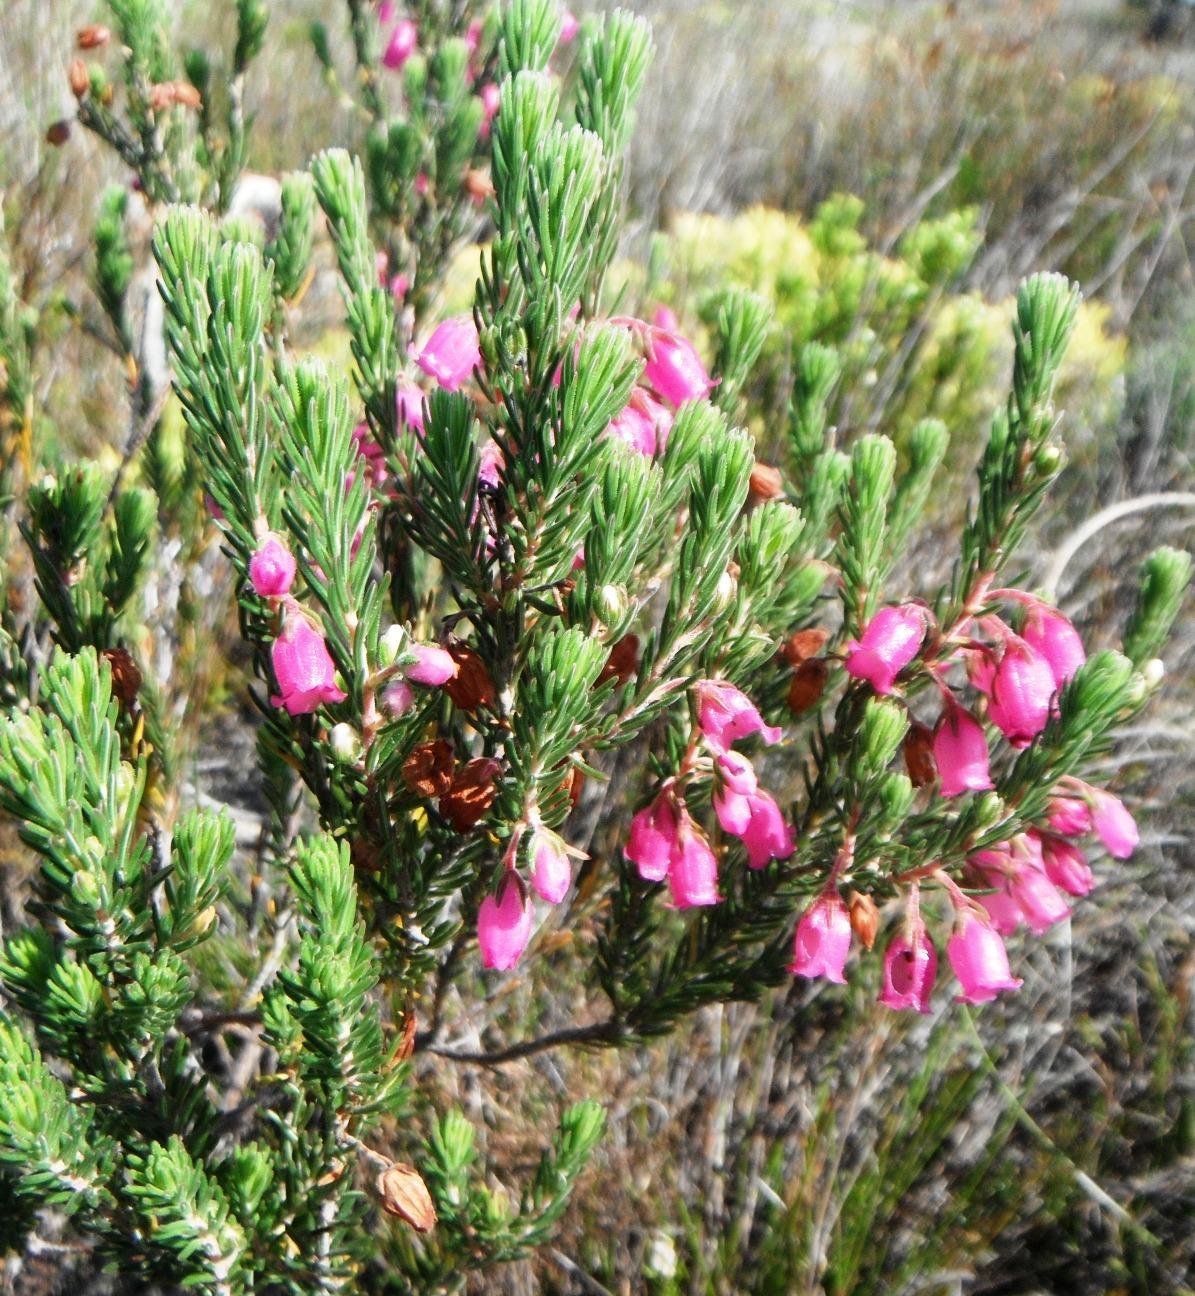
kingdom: Plantae
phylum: Tracheophyta
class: Magnoliopsida
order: Ericales
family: Ericaceae
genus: Erica
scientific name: Erica viscaria
